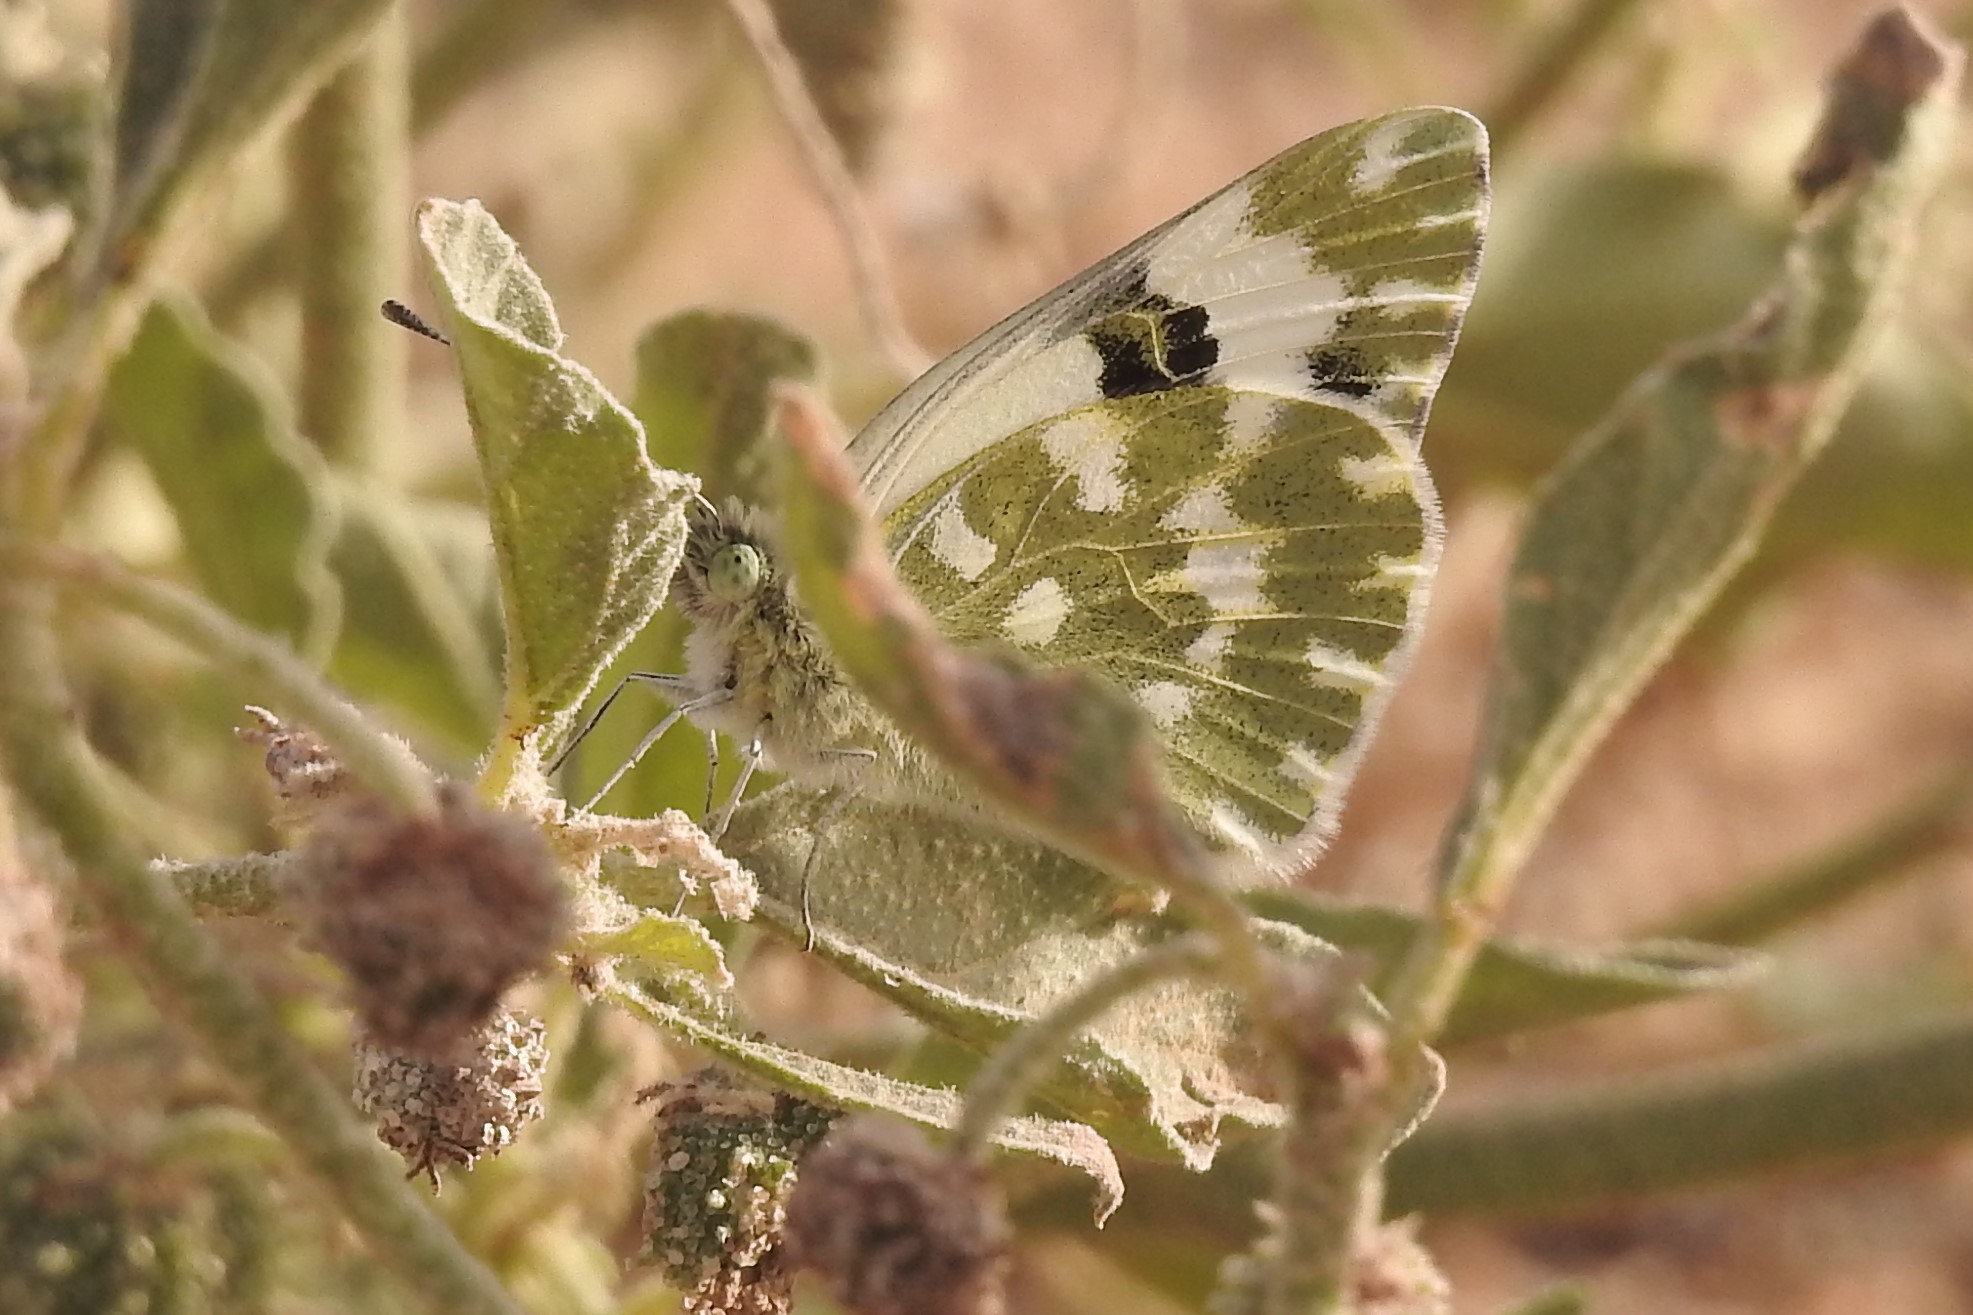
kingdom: Animalia
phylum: Arthropoda
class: Insecta
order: Lepidoptera
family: Pieridae
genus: Pontia
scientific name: Pontia daplidice
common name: Bath white
